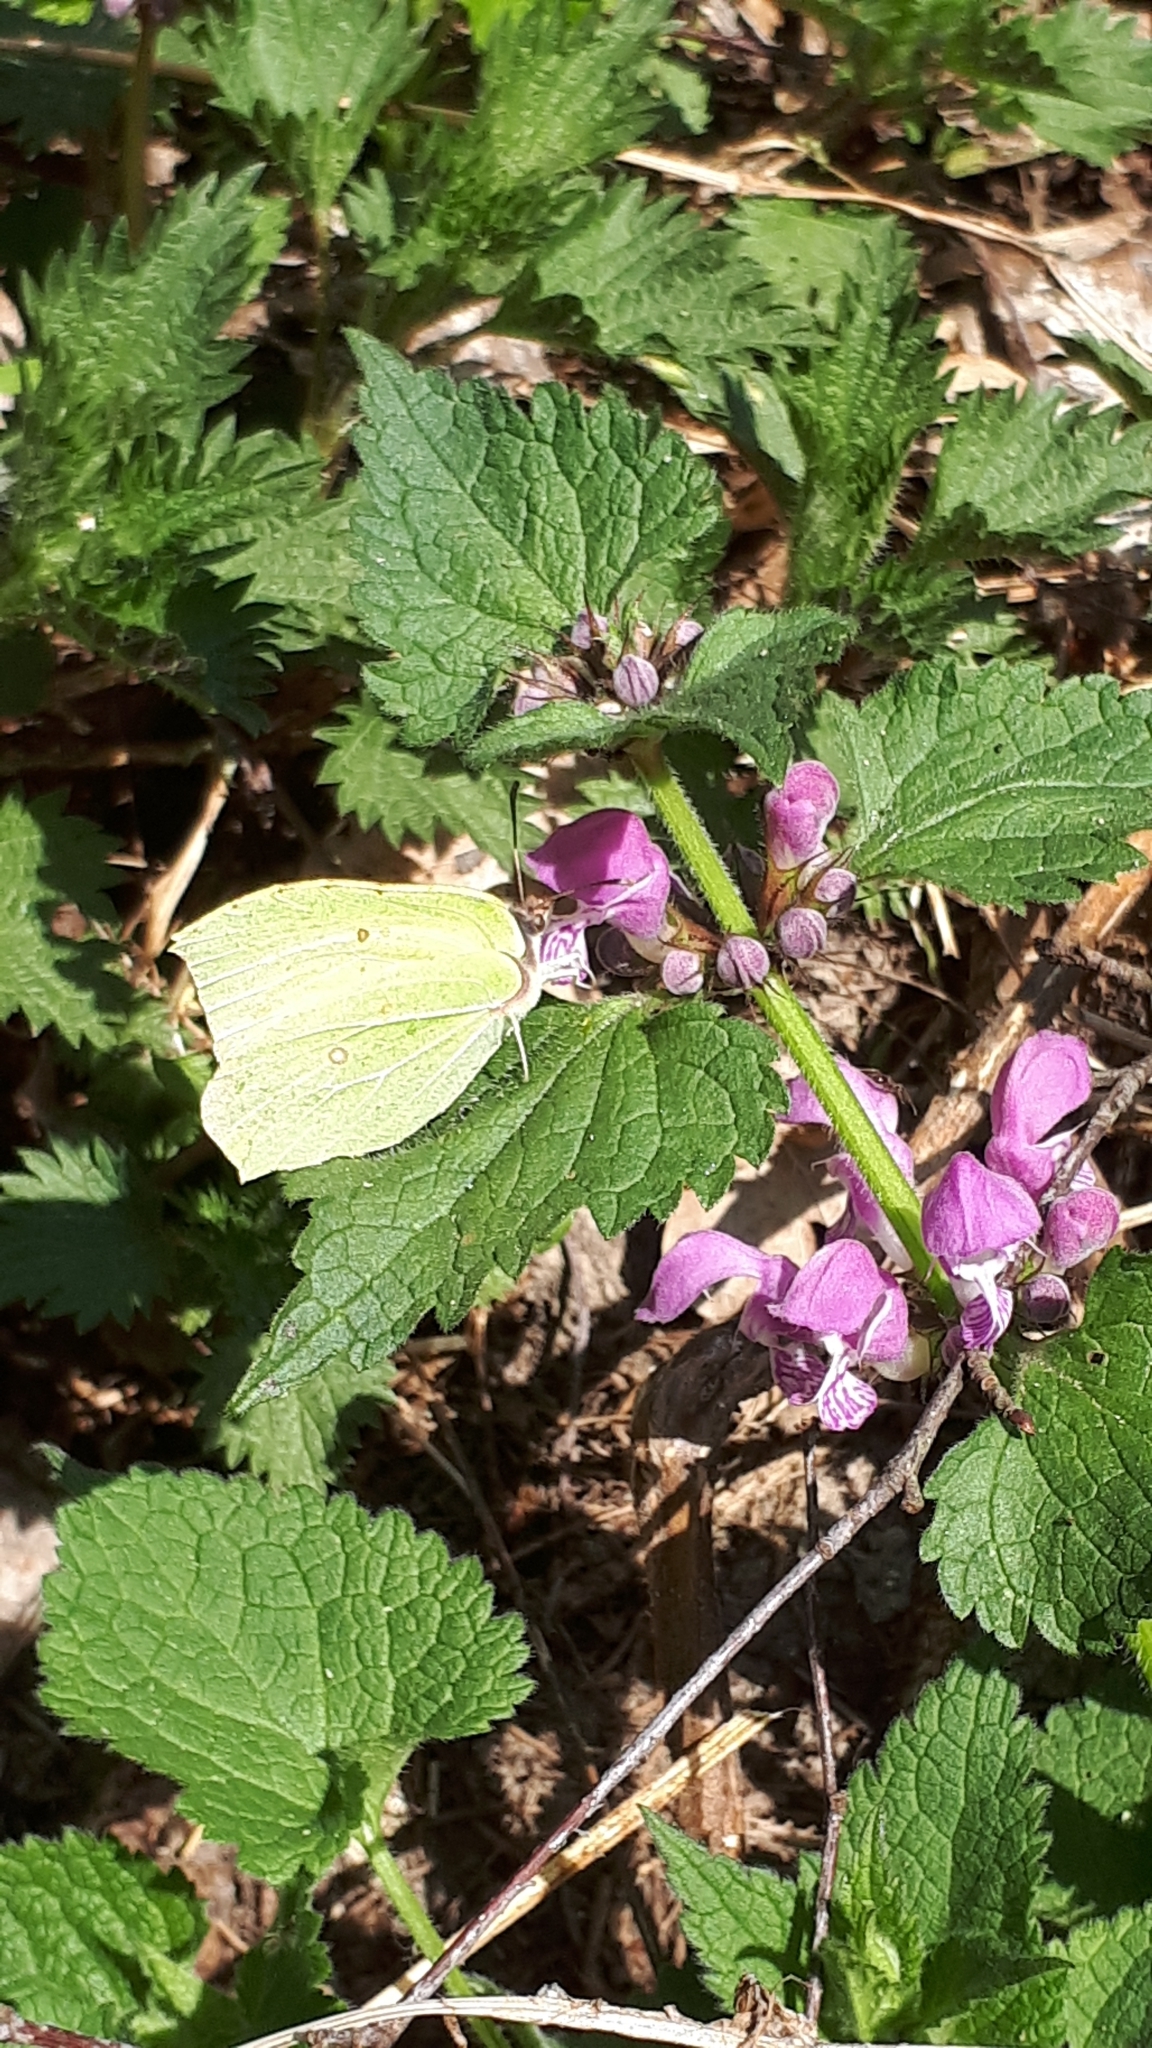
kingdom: Animalia
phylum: Arthropoda
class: Insecta
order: Lepidoptera
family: Pieridae
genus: Gonepteryx
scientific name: Gonepteryx rhamni
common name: Brimstone
